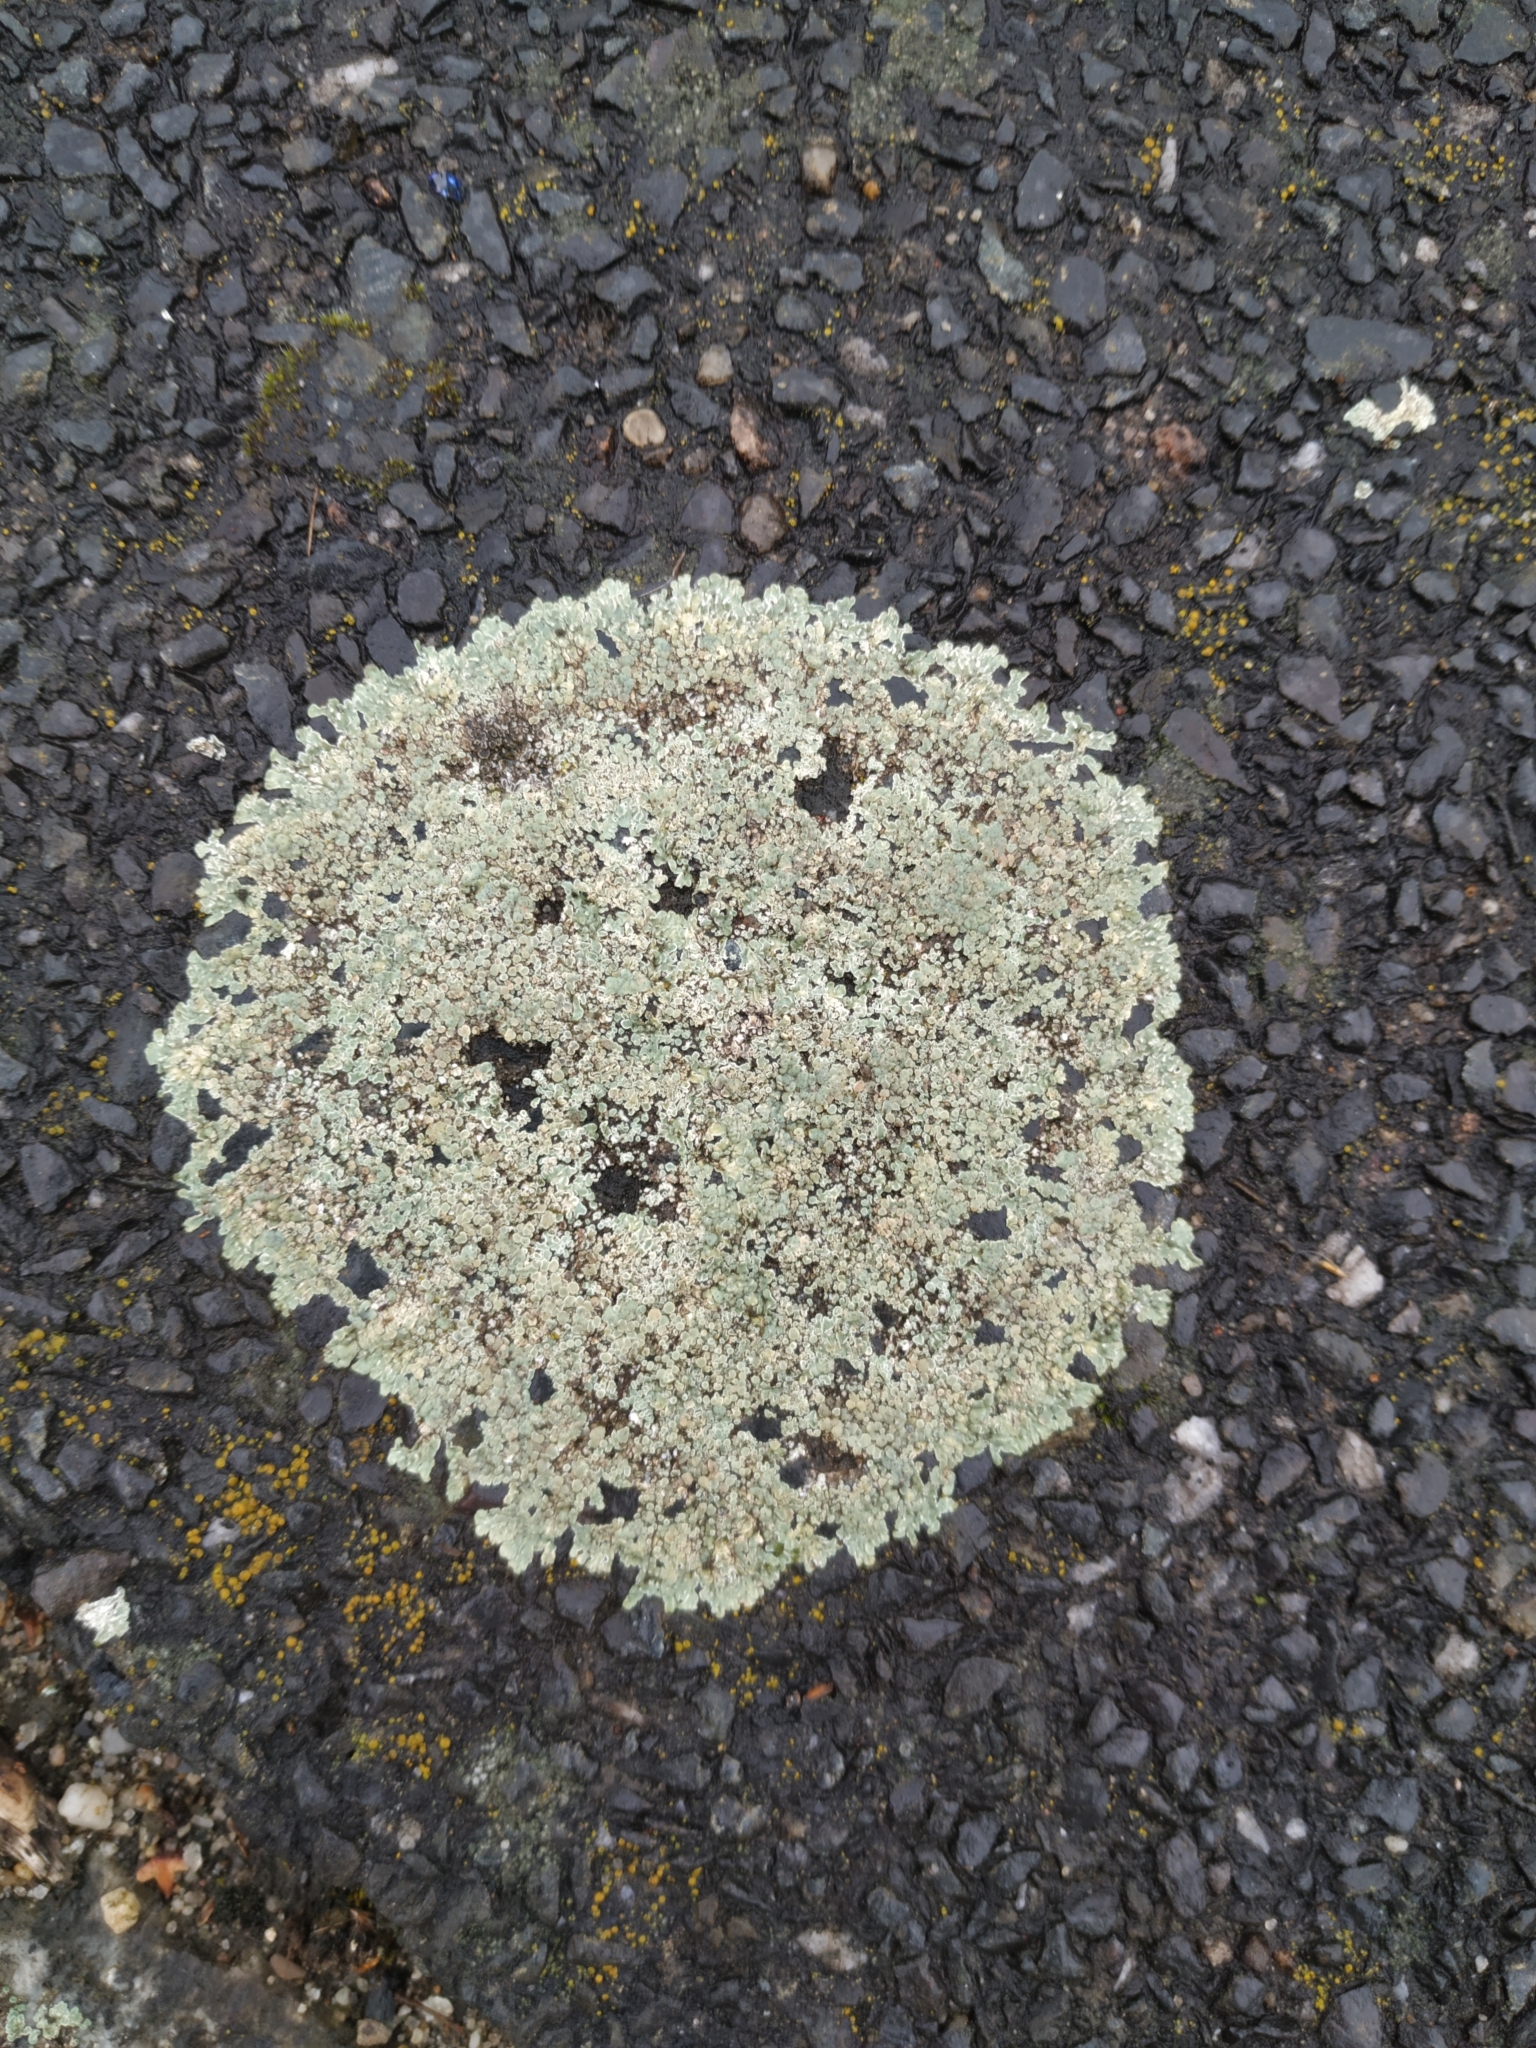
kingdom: Fungi
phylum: Ascomycota
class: Lecanoromycetes
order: Lecanorales
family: Lecanoraceae
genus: Protoparmeliopsis
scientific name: Protoparmeliopsis muralis
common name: Stonewall rim lichen
